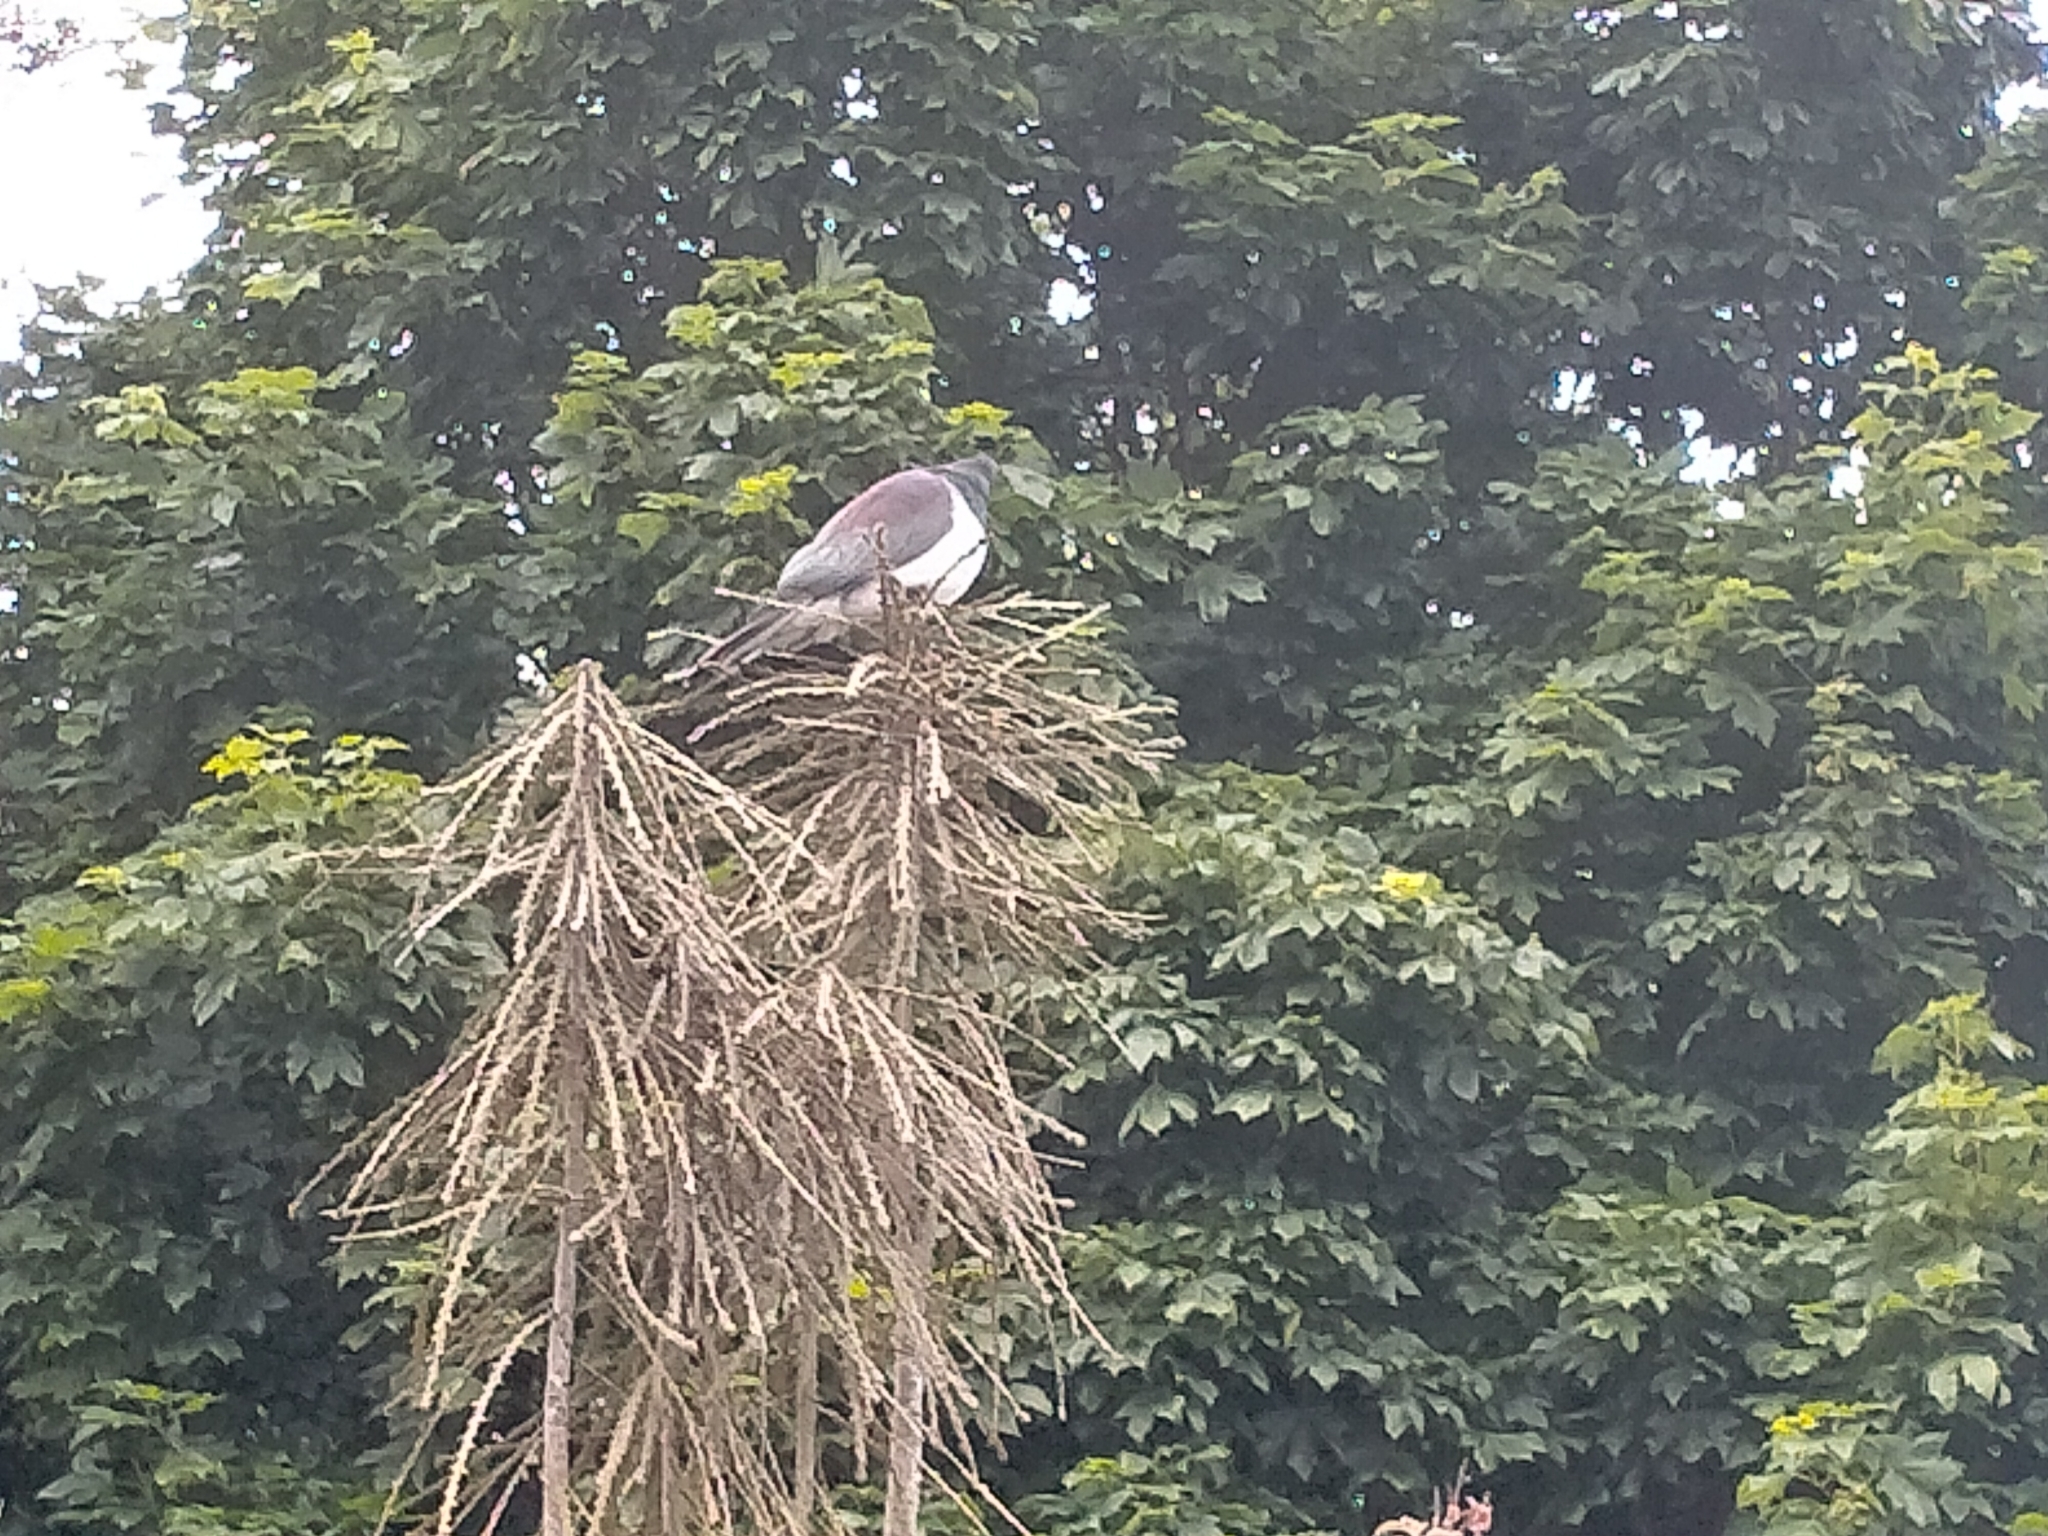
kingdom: Animalia
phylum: Chordata
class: Aves
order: Columbiformes
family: Columbidae
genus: Hemiphaga
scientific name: Hemiphaga novaeseelandiae
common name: New zealand pigeon
